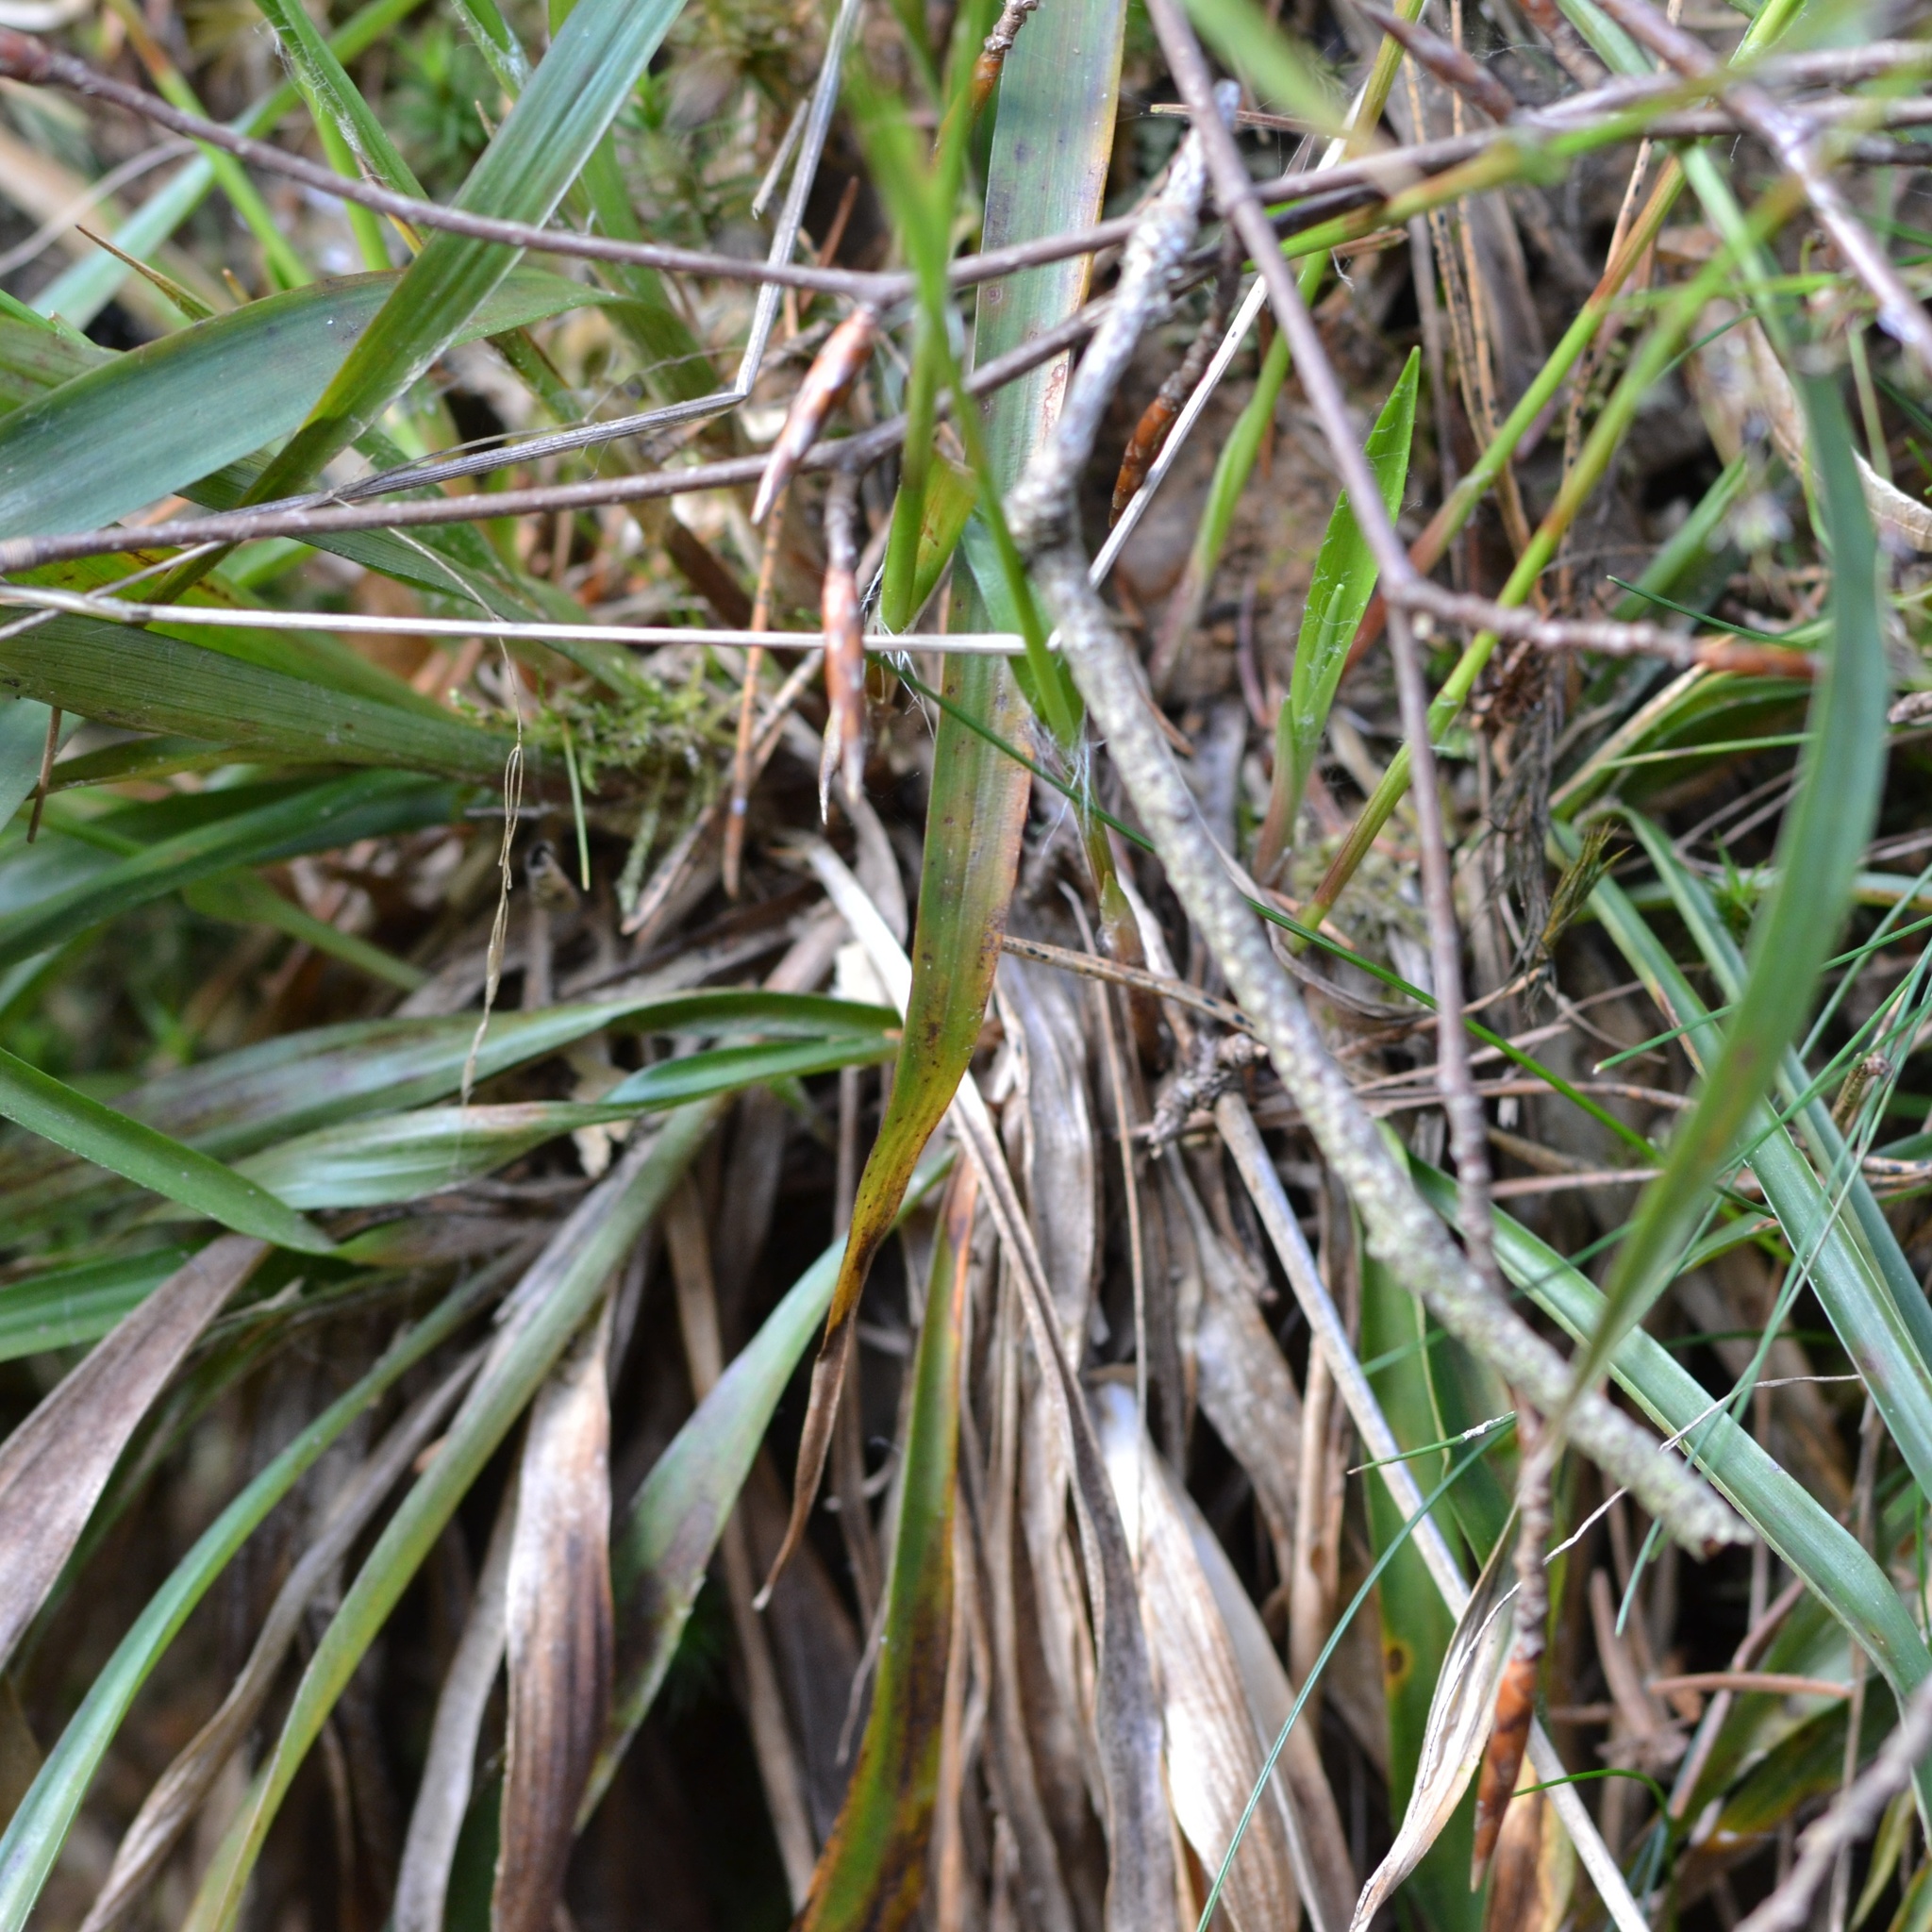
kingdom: Plantae
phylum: Tracheophyta
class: Liliopsida
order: Poales
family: Juncaceae
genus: Luzula
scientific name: Luzula pilosa
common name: Hairy wood-rush
